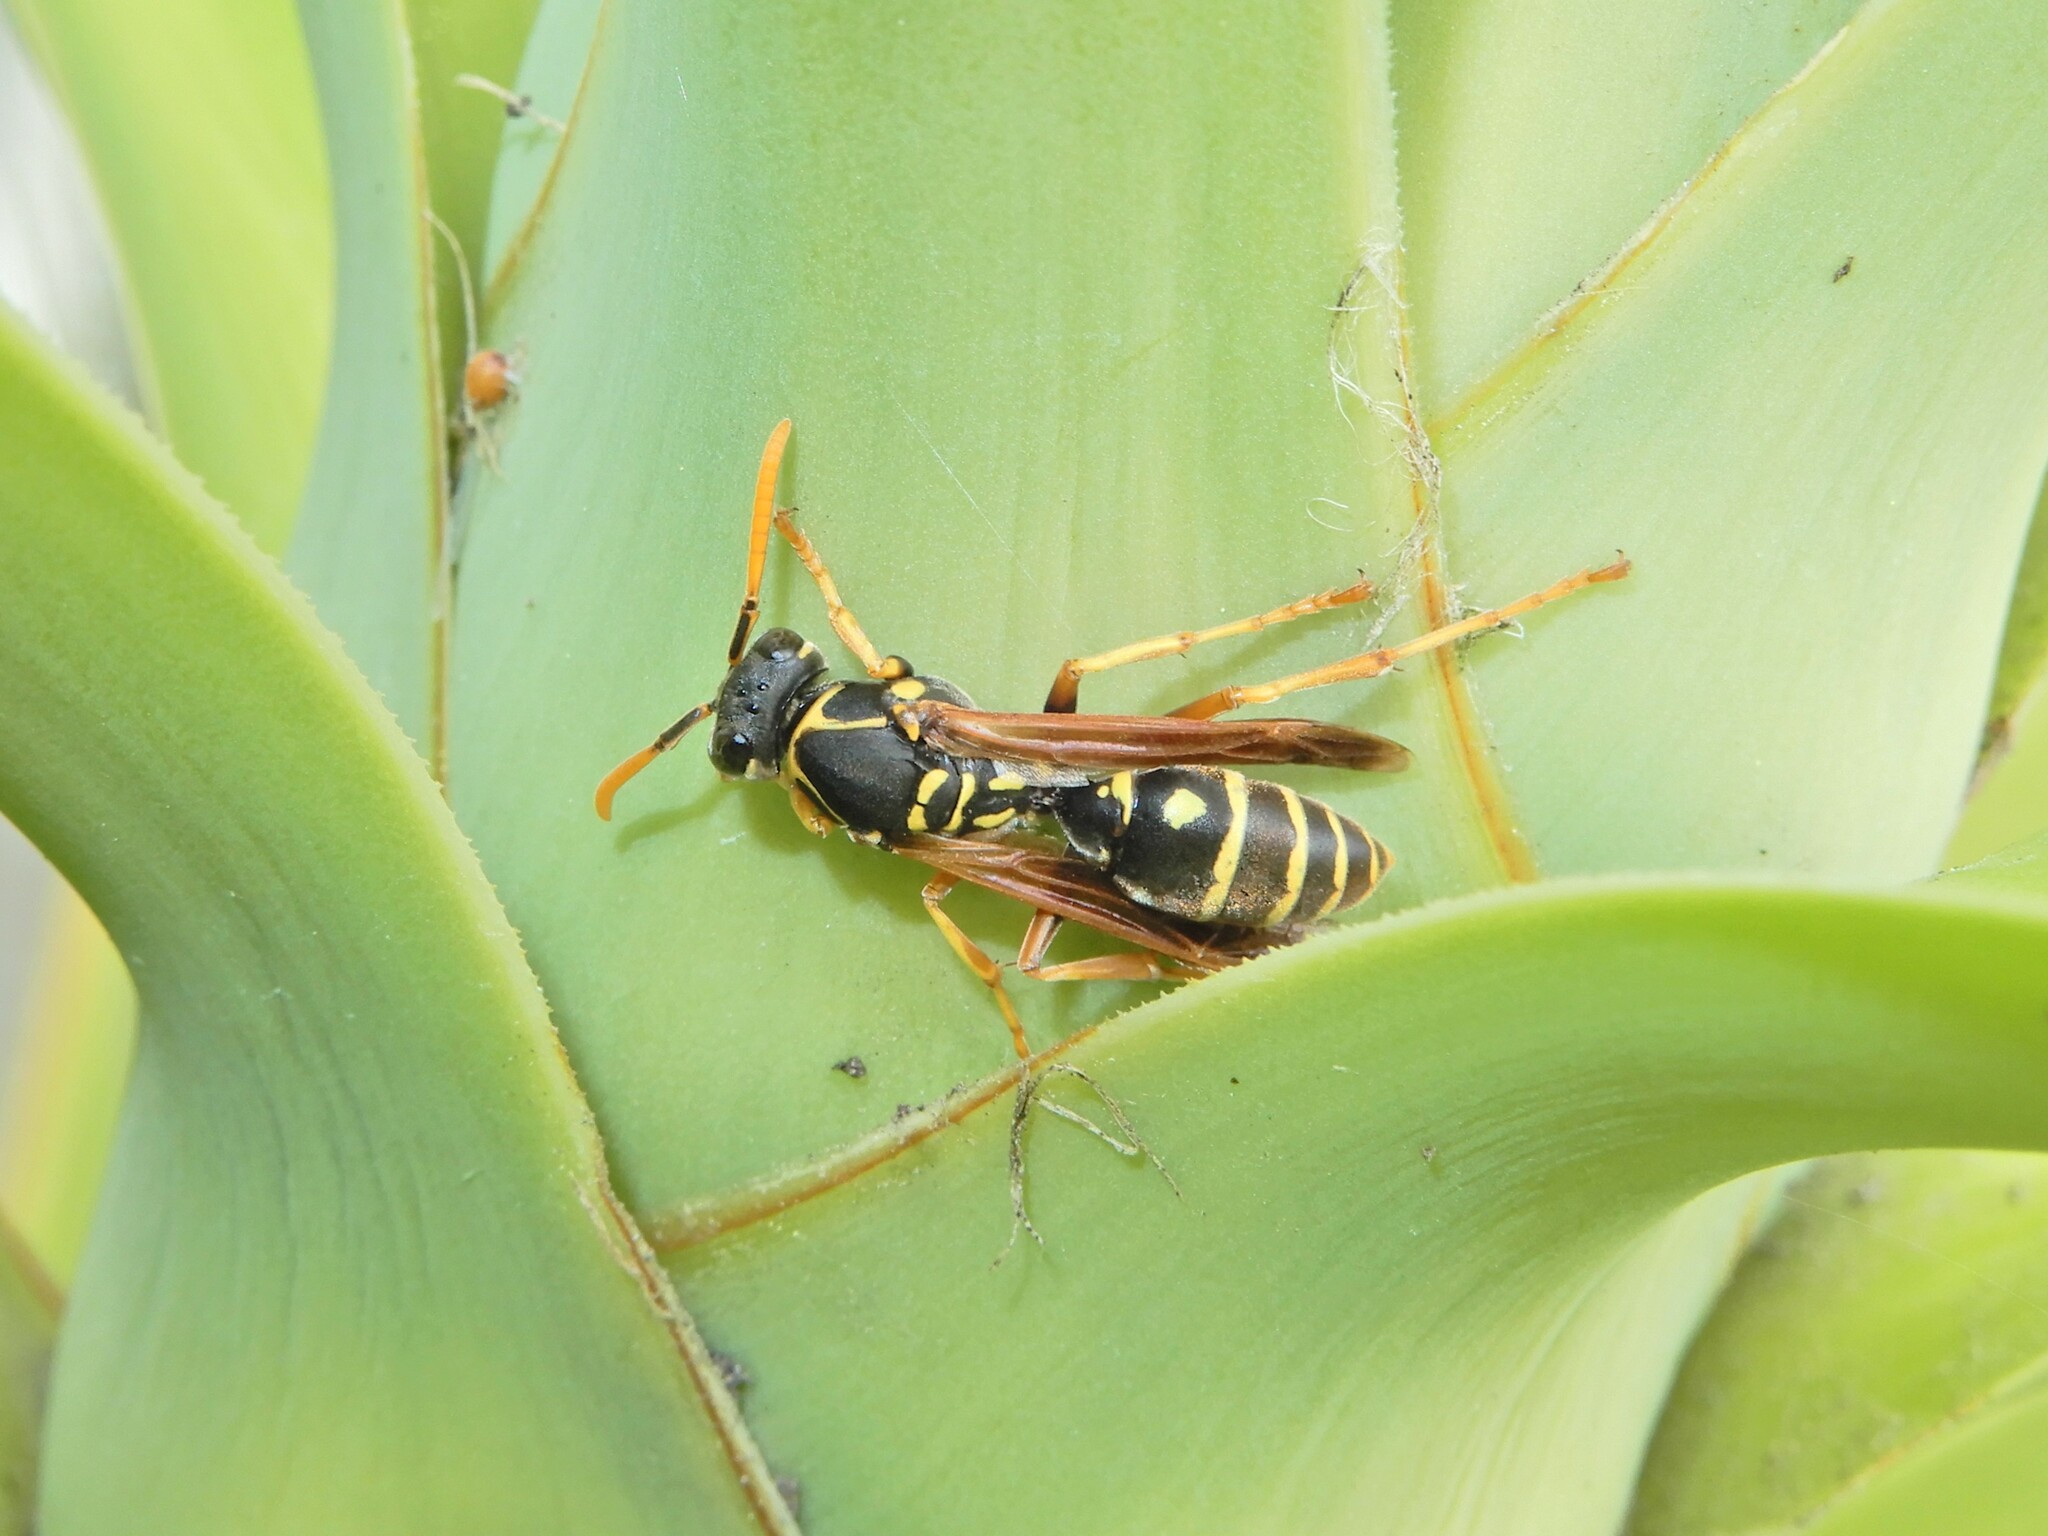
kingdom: Animalia
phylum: Arthropoda
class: Insecta
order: Hymenoptera
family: Eumenidae
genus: Polistes
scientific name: Polistes chinensis
